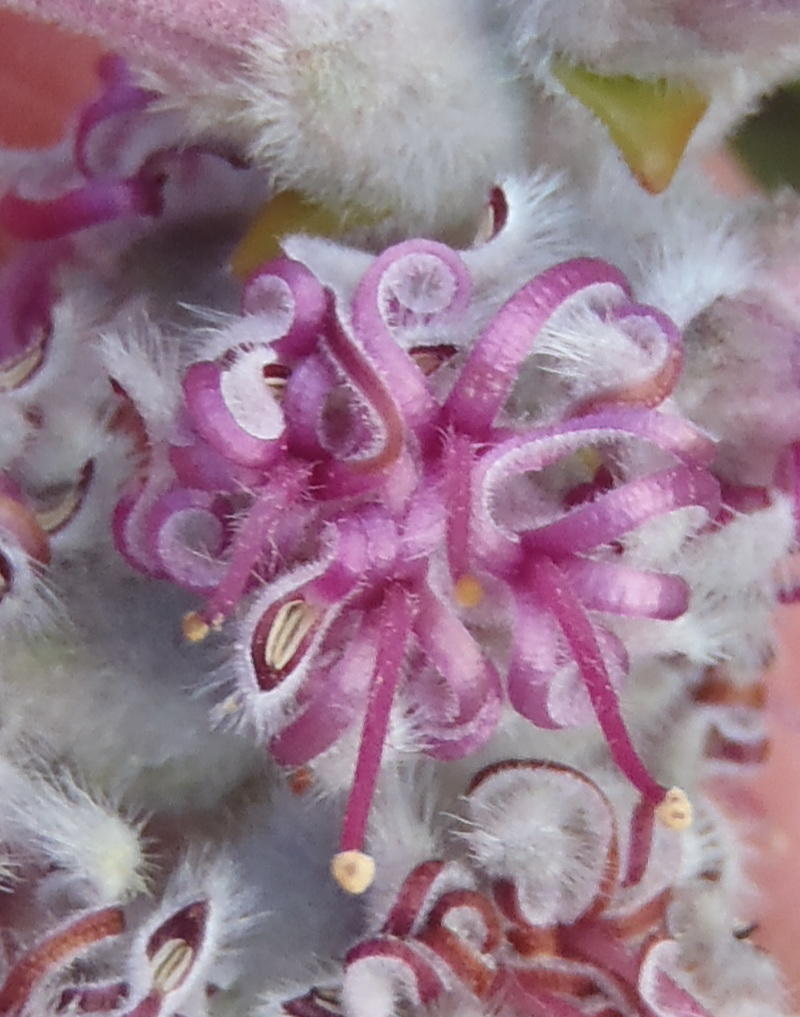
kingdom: Plantae
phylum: Tracheophyta
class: Magnoliopsida
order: Proteales
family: Proteaceae
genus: Paranomus
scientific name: Paranomus dispersus
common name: Long-head sceptre
